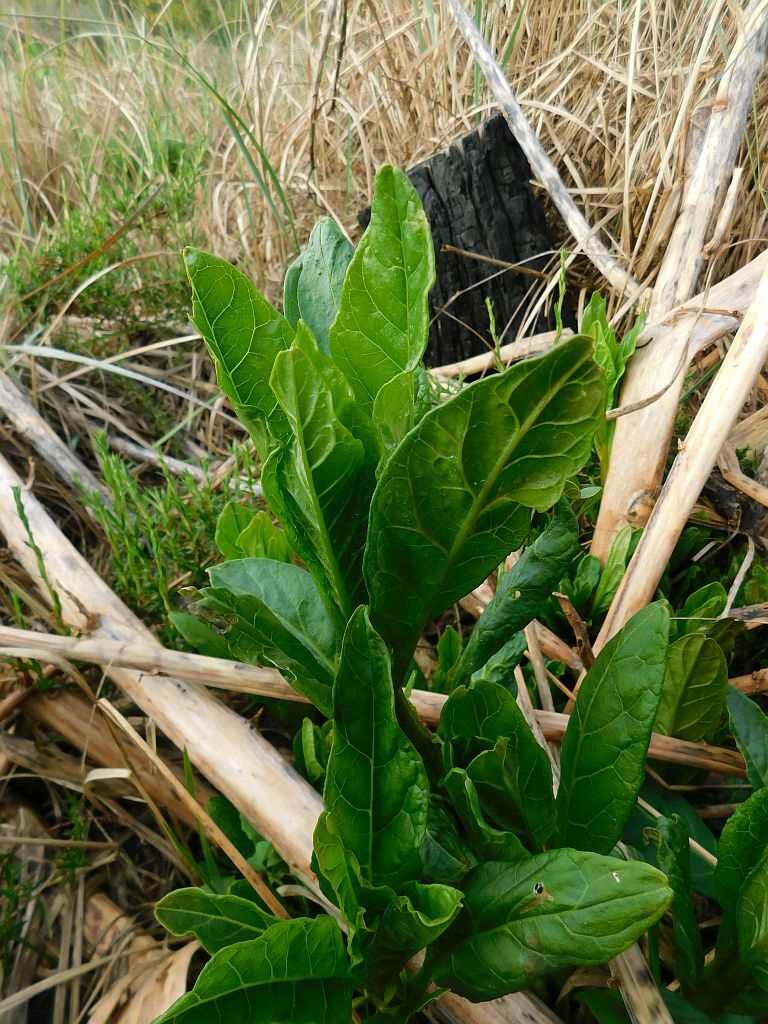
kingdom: Plantae
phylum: Tracheophyta
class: Magnoliopsida
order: Caryophyllales
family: Phytolaccaceae
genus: Phytolacca
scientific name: Phytolacca icosandra
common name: Button pokeweed
